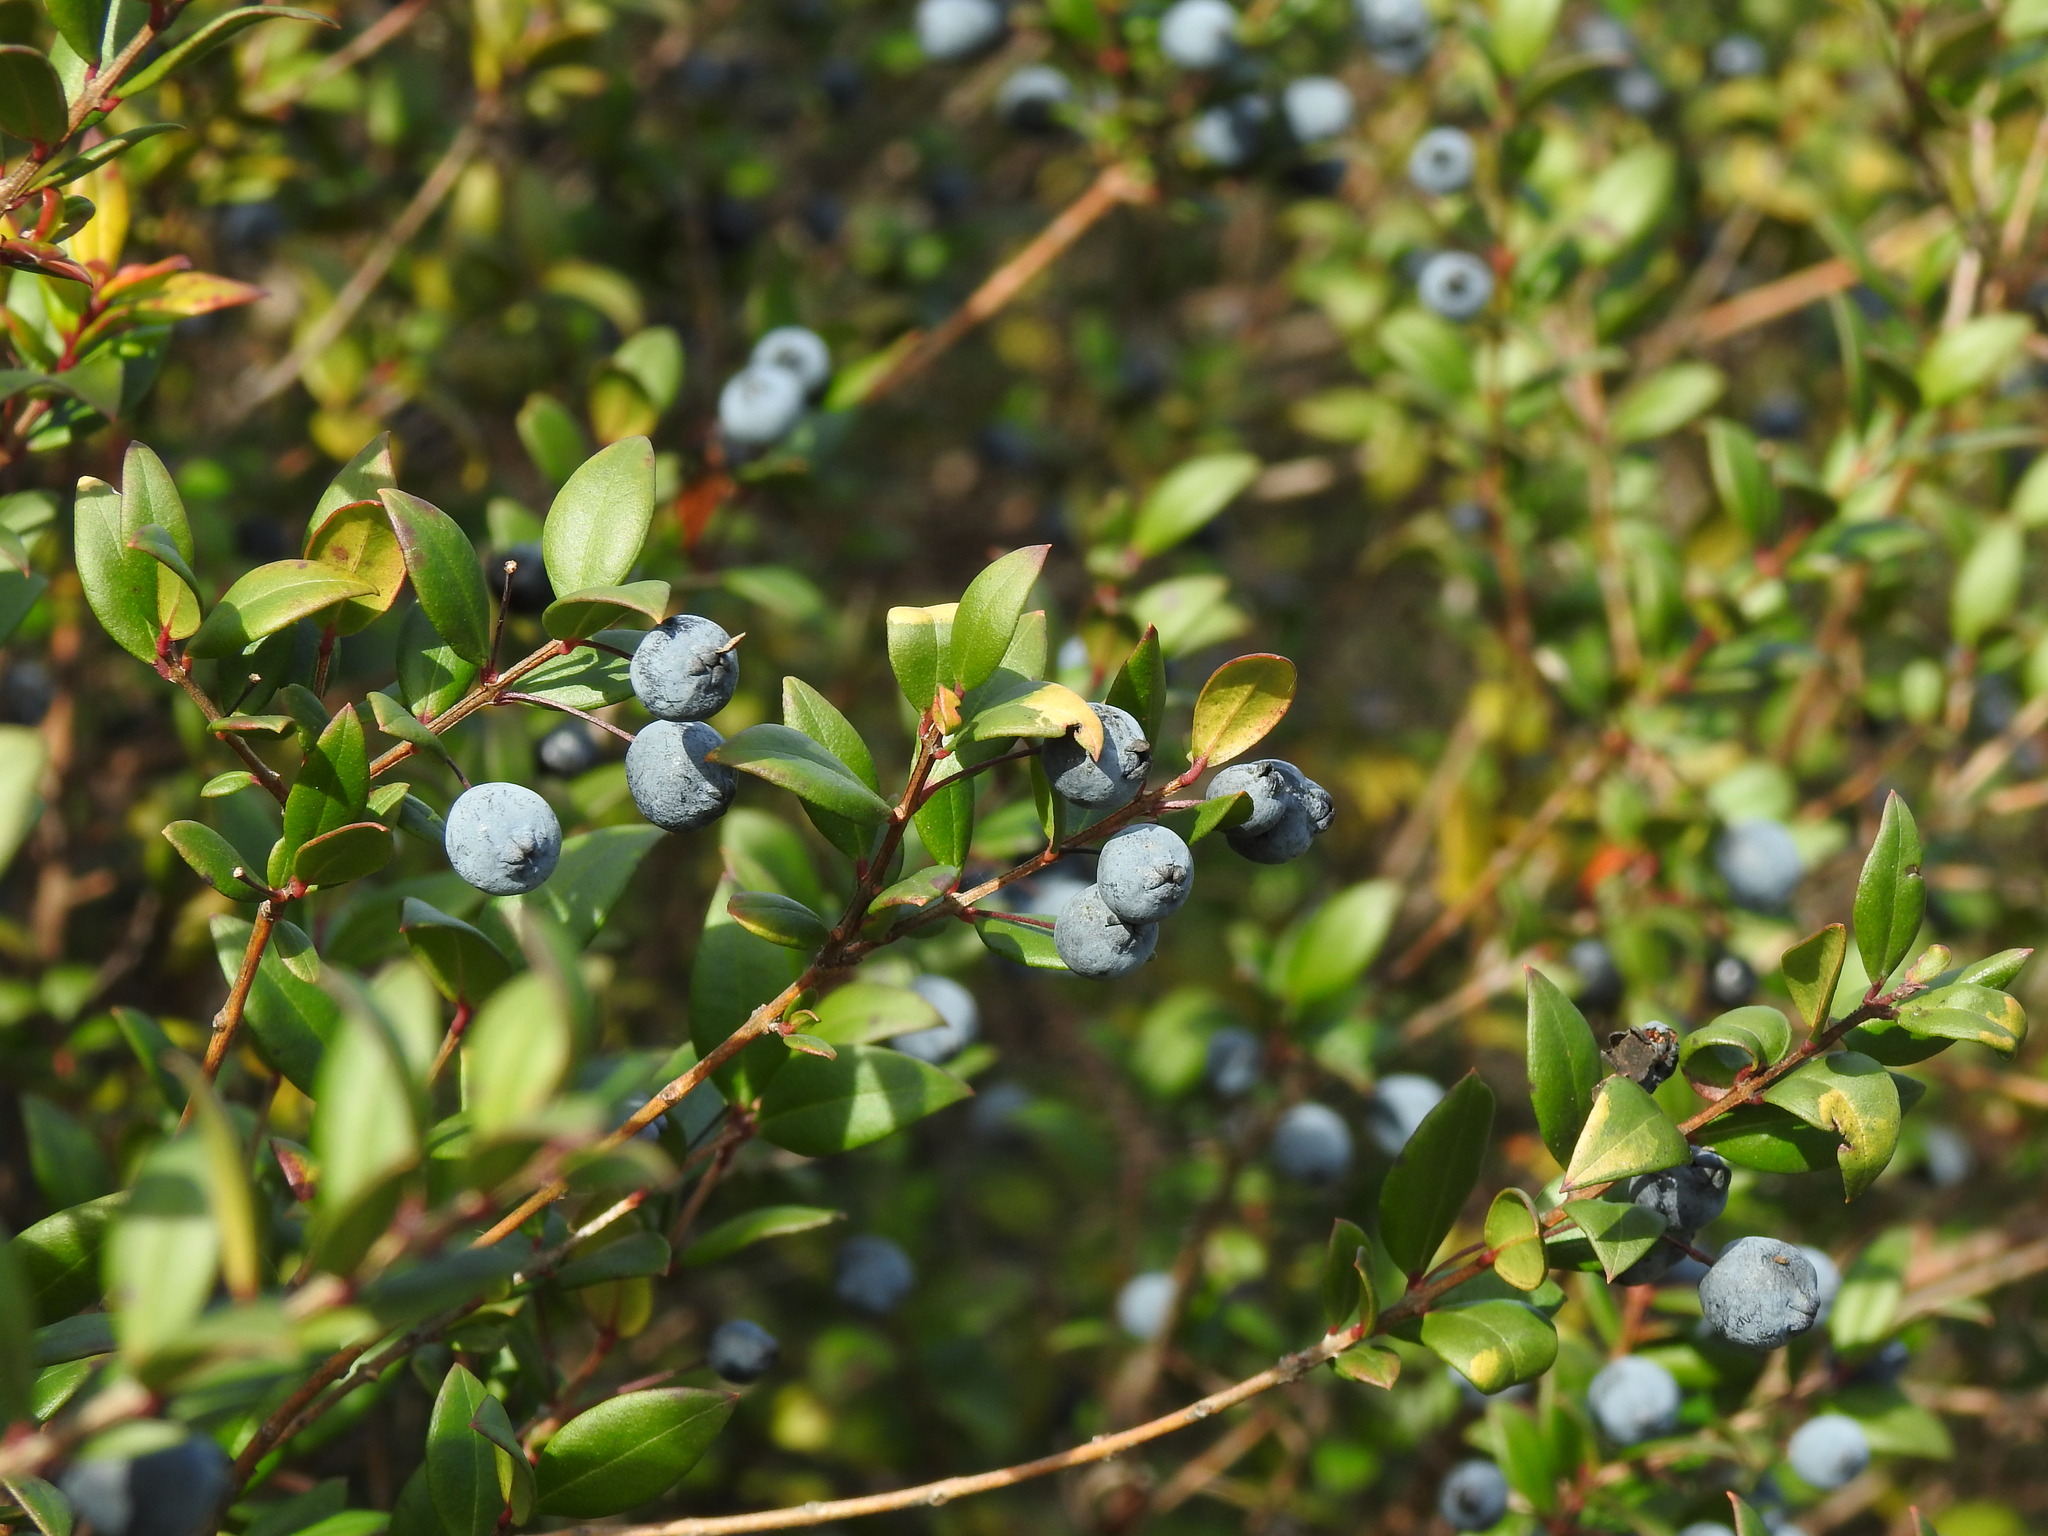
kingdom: Plantae
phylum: Tracheophyta
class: Magnoliopsida
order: Myrtales
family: Myrtaceae
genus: Myrtus
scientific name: Myrtus communis
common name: Myrtle
